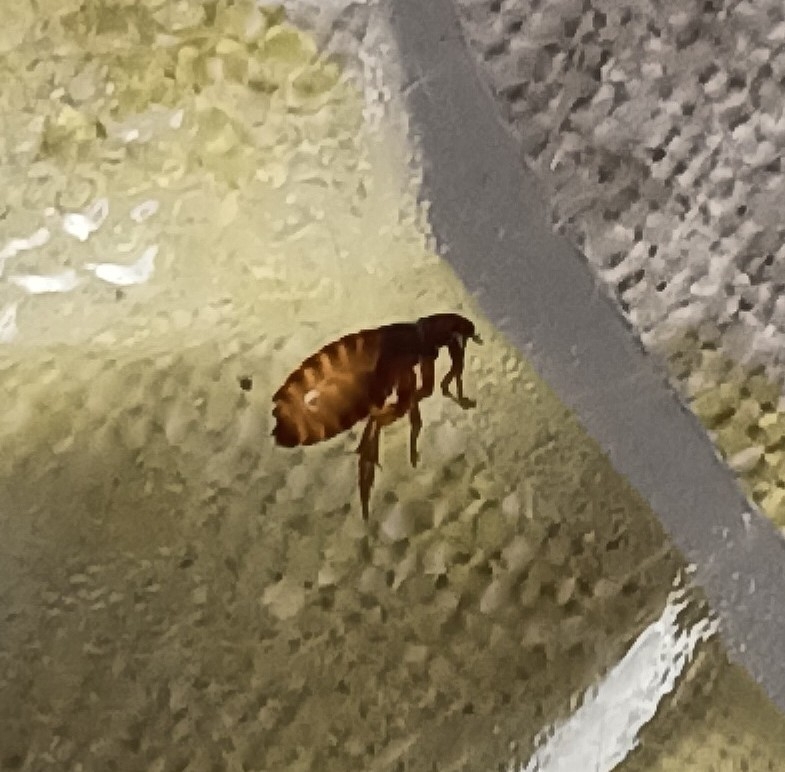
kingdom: Animalia
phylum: Arthropoda
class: Insecta
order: Siphonaptera
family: Pulicidae
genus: Ctenocephalides
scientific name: Ctenocephalides felis
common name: Cat flea
